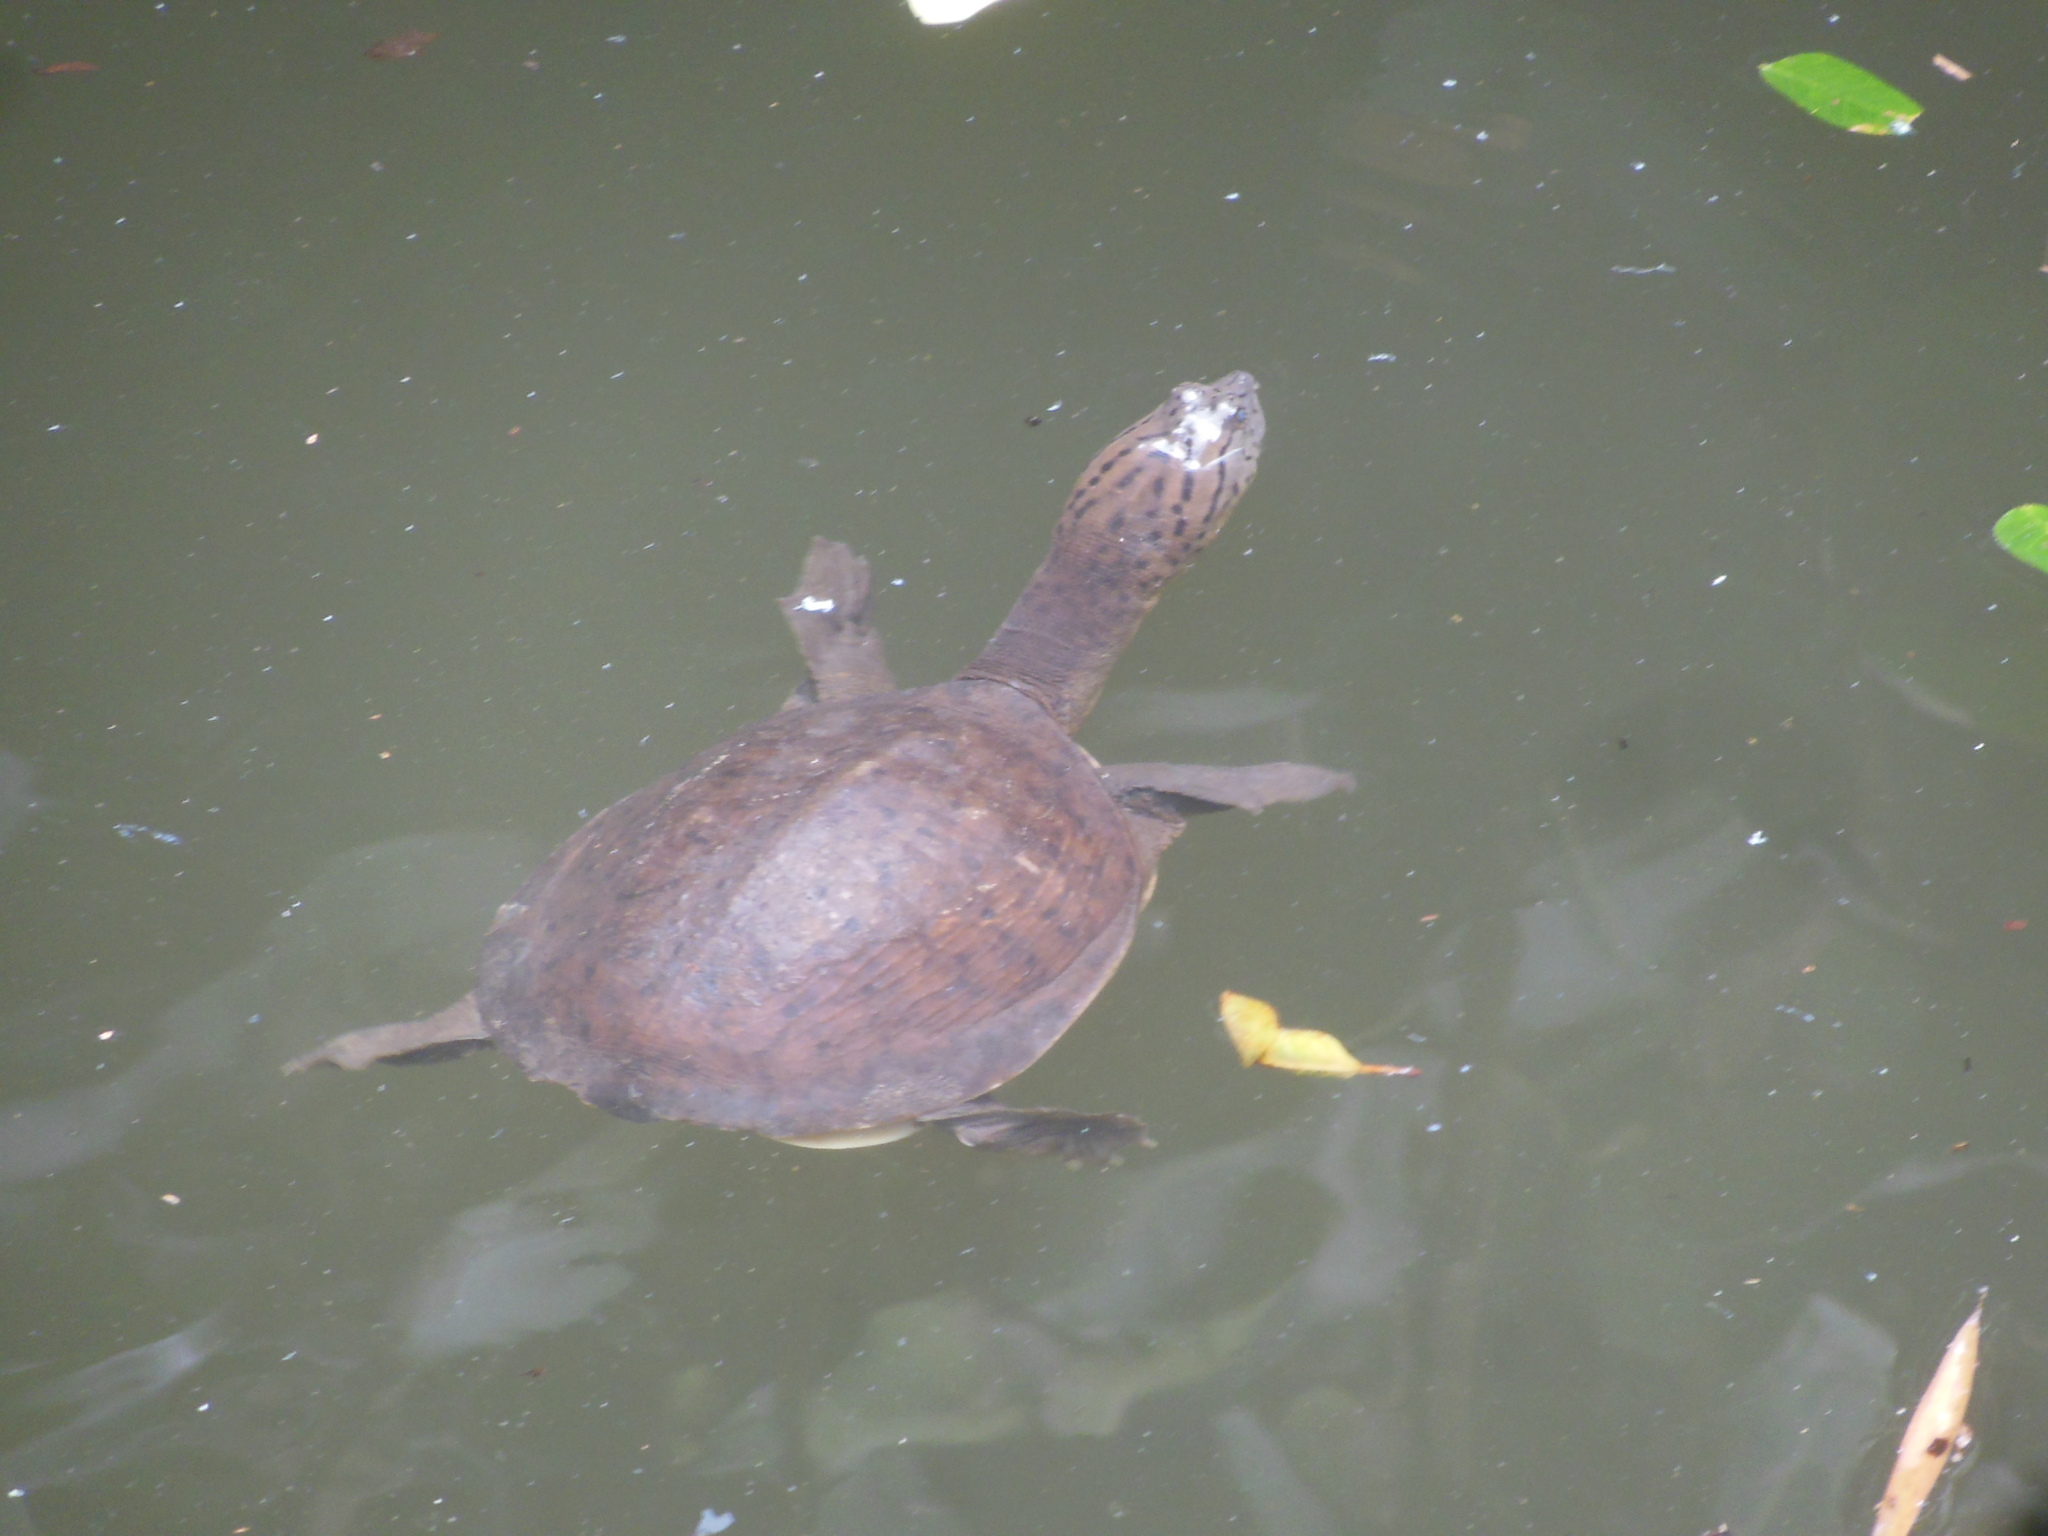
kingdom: Animalia
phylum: Chordata
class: Testudines
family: Trionychidae
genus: Lissemys
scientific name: Lissemys punctata
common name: Indian flap-shelled turtle
